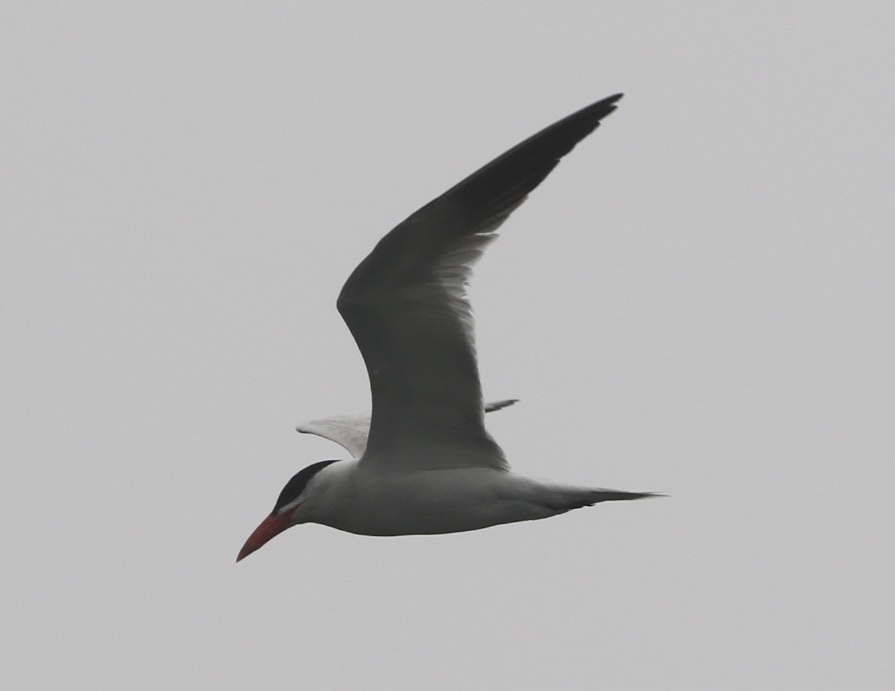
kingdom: Animalia
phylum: Chordata
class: Aves
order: Charadriiformes
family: Laridae
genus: Hydroprogne
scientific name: Hydroprogne caspia
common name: Caspian tern
